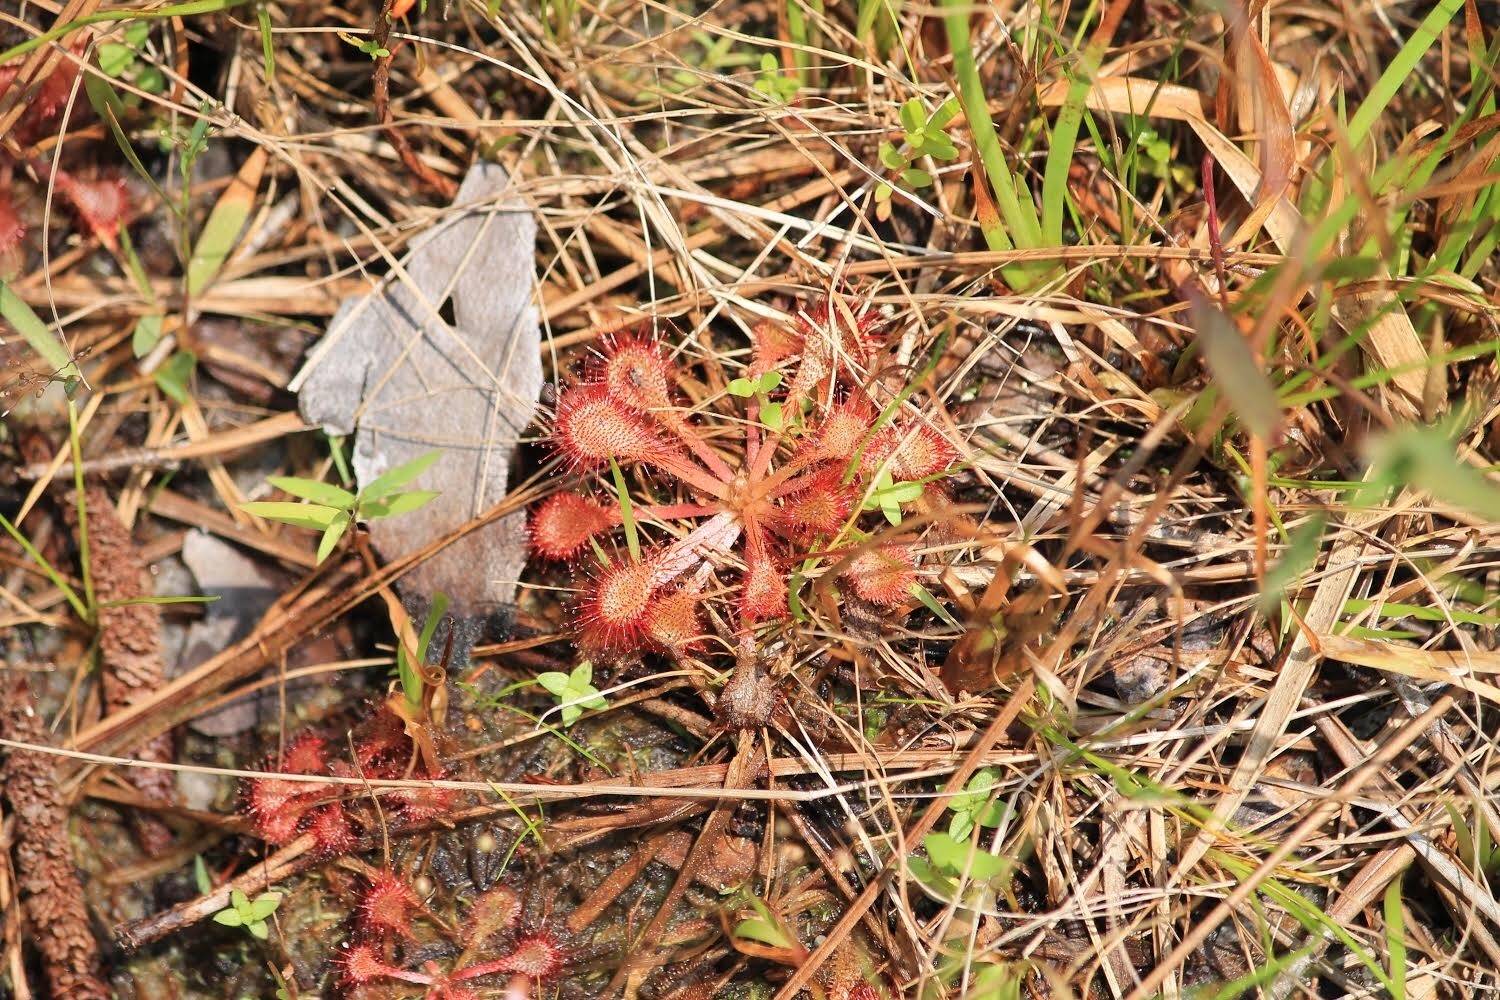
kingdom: Plantae
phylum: Tracheophyta
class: Magnoliopsida
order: Caryophyllales
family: Droseraceae
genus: Drosera
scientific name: Drosera capillaris
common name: Pink sundew
